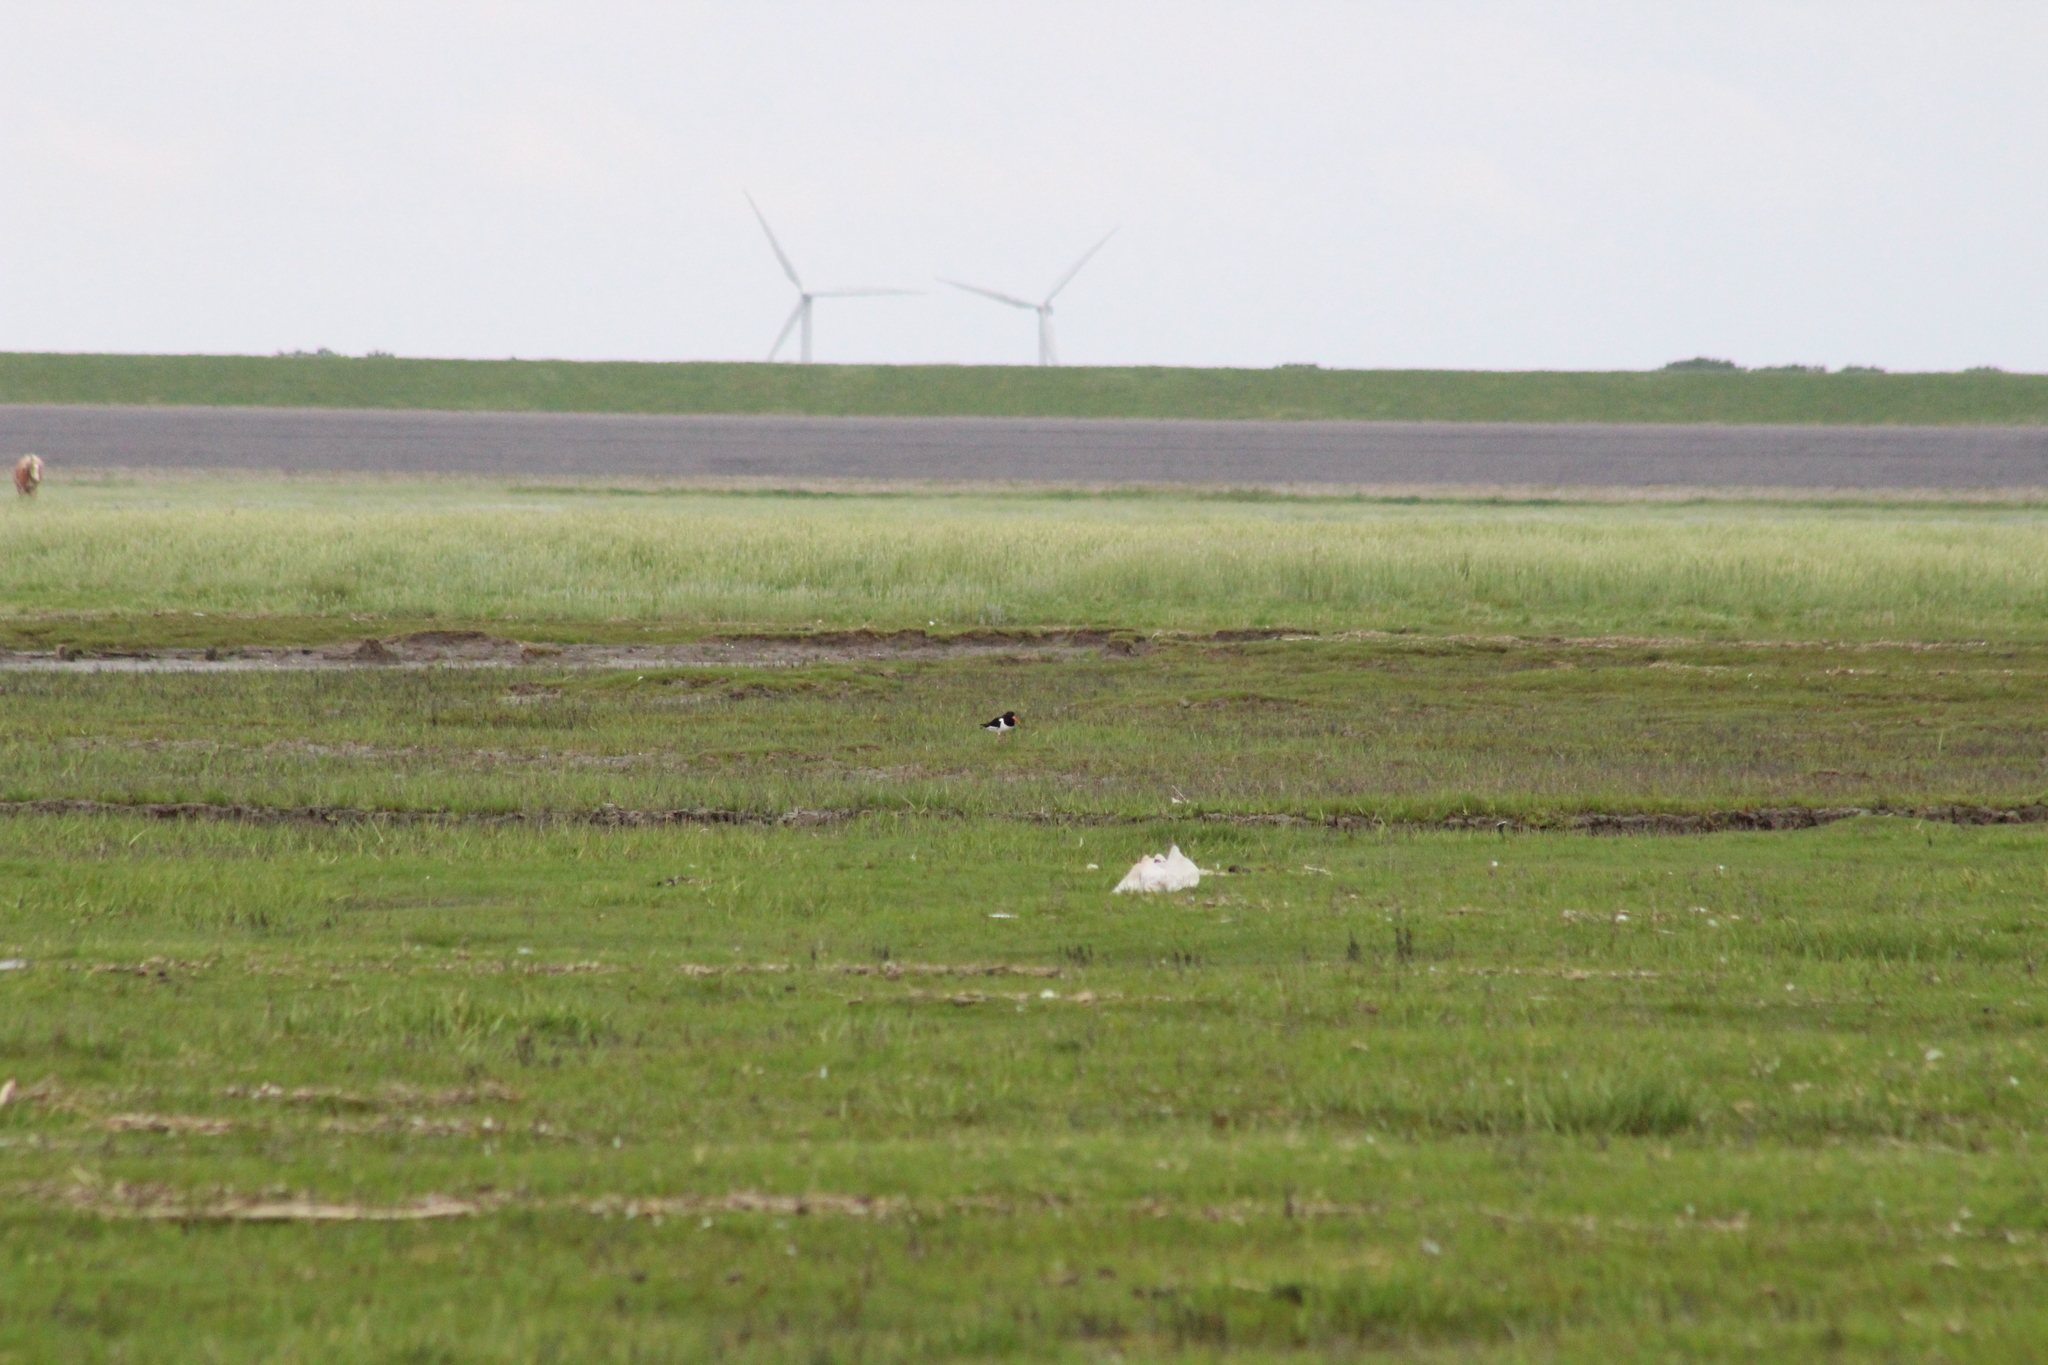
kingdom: Animalia
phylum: Chordata
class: Aves
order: Charadriiformes
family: Haematopodidae
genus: Haematopus
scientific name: Haematopus ostralegus
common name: Eurasian oystercatcher
